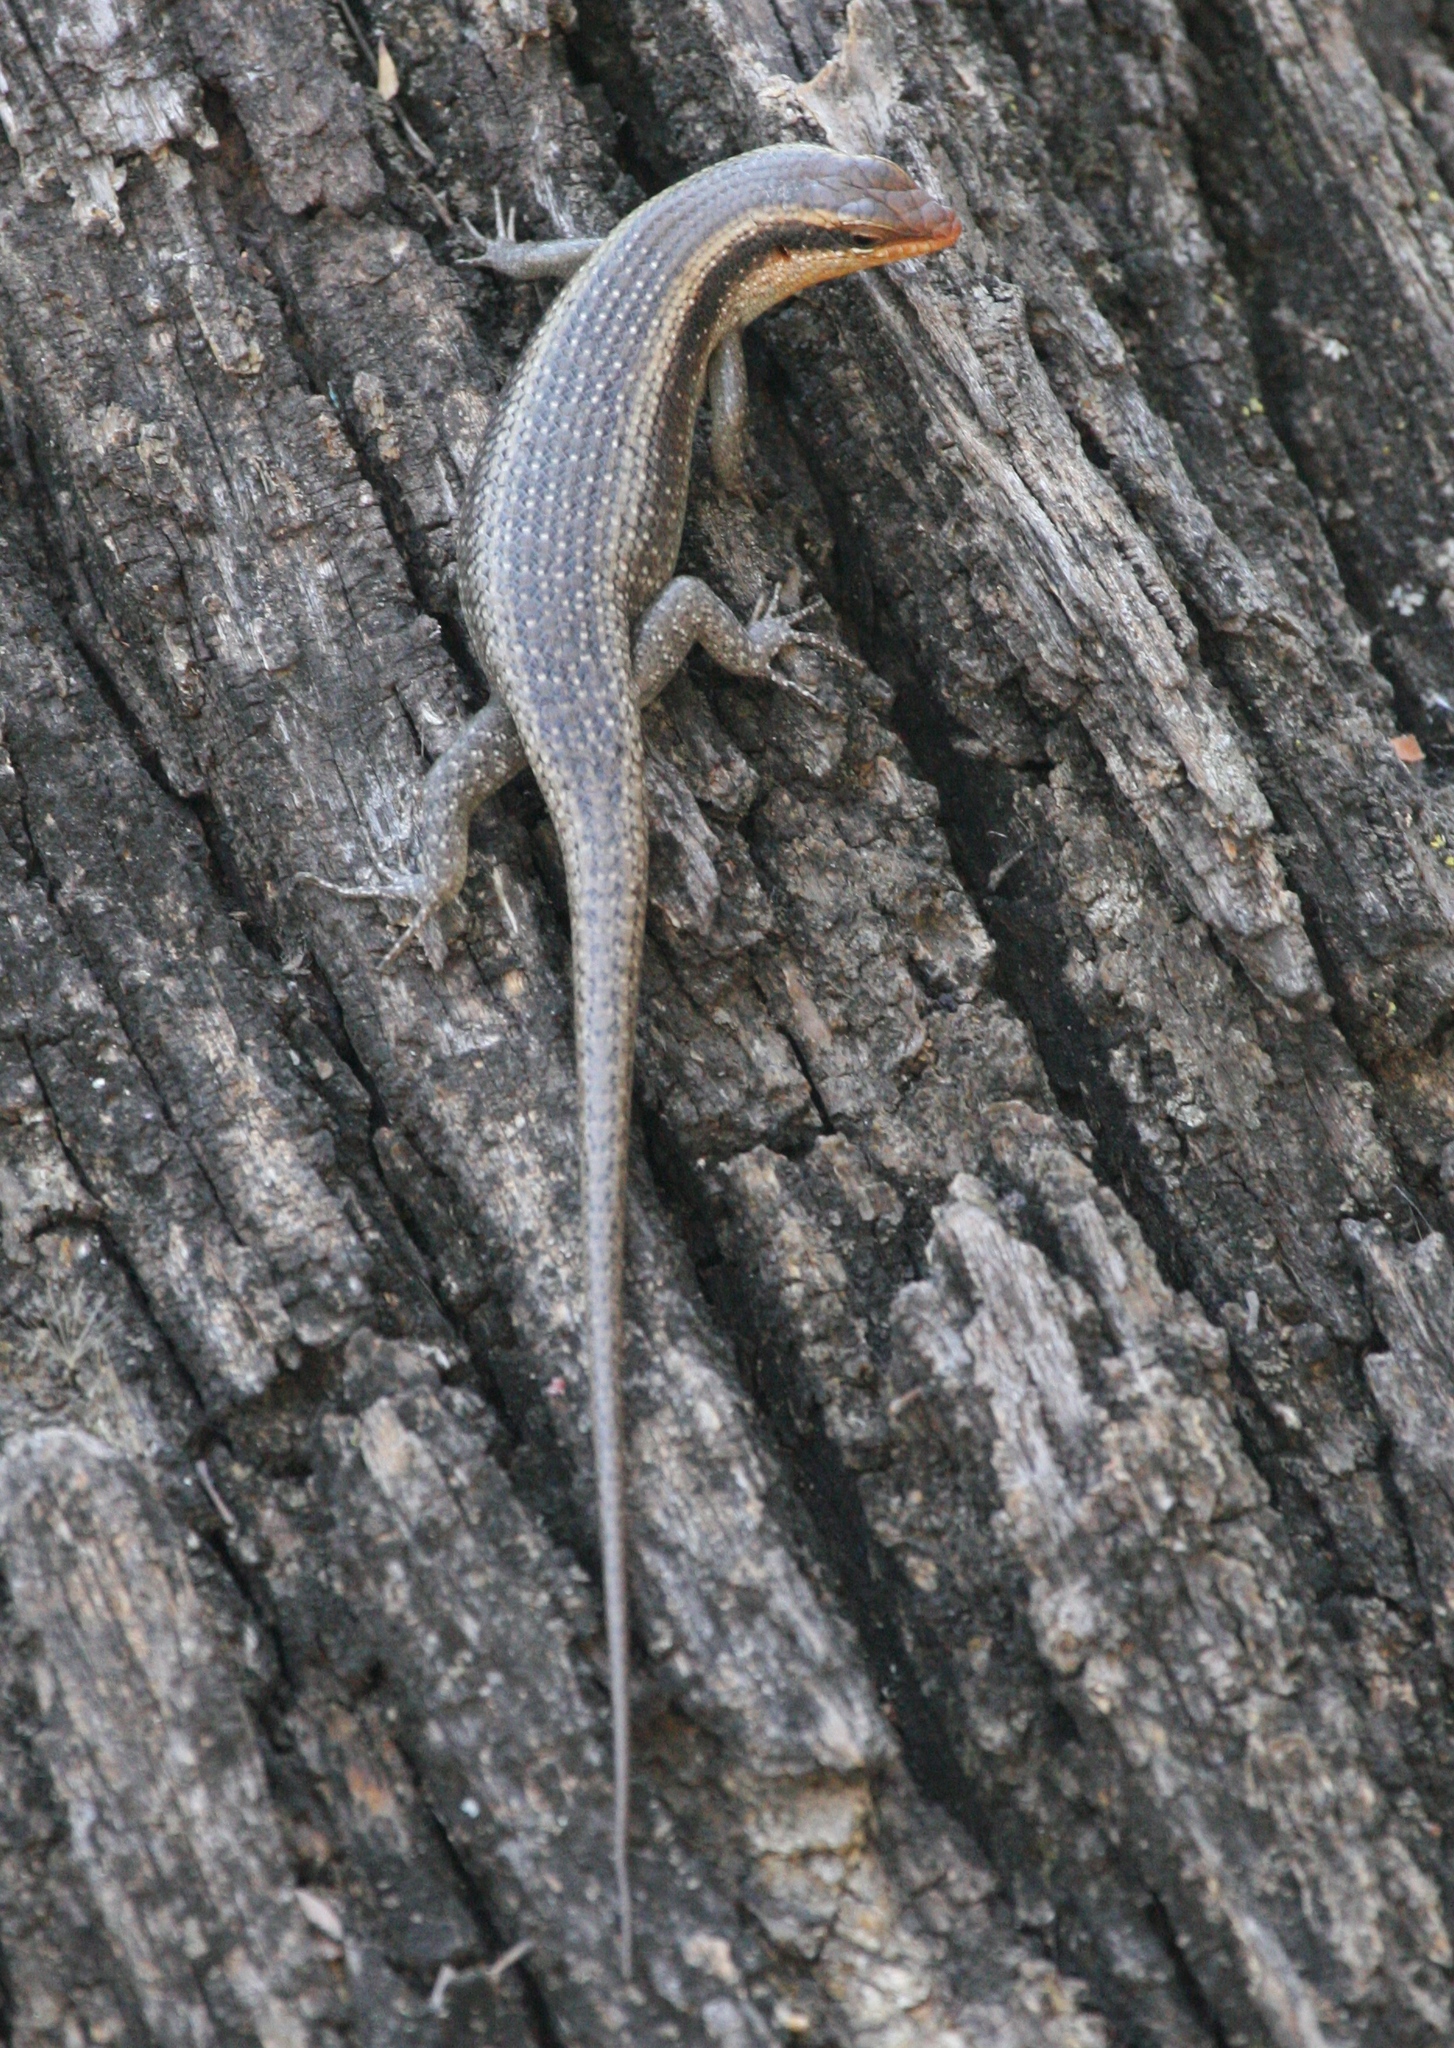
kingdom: Animalia
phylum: Chordata
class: Squamata
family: Scincidae
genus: Trachylepis
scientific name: Trachylepis wahlbergii
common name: Wahlberg’s striped skink
